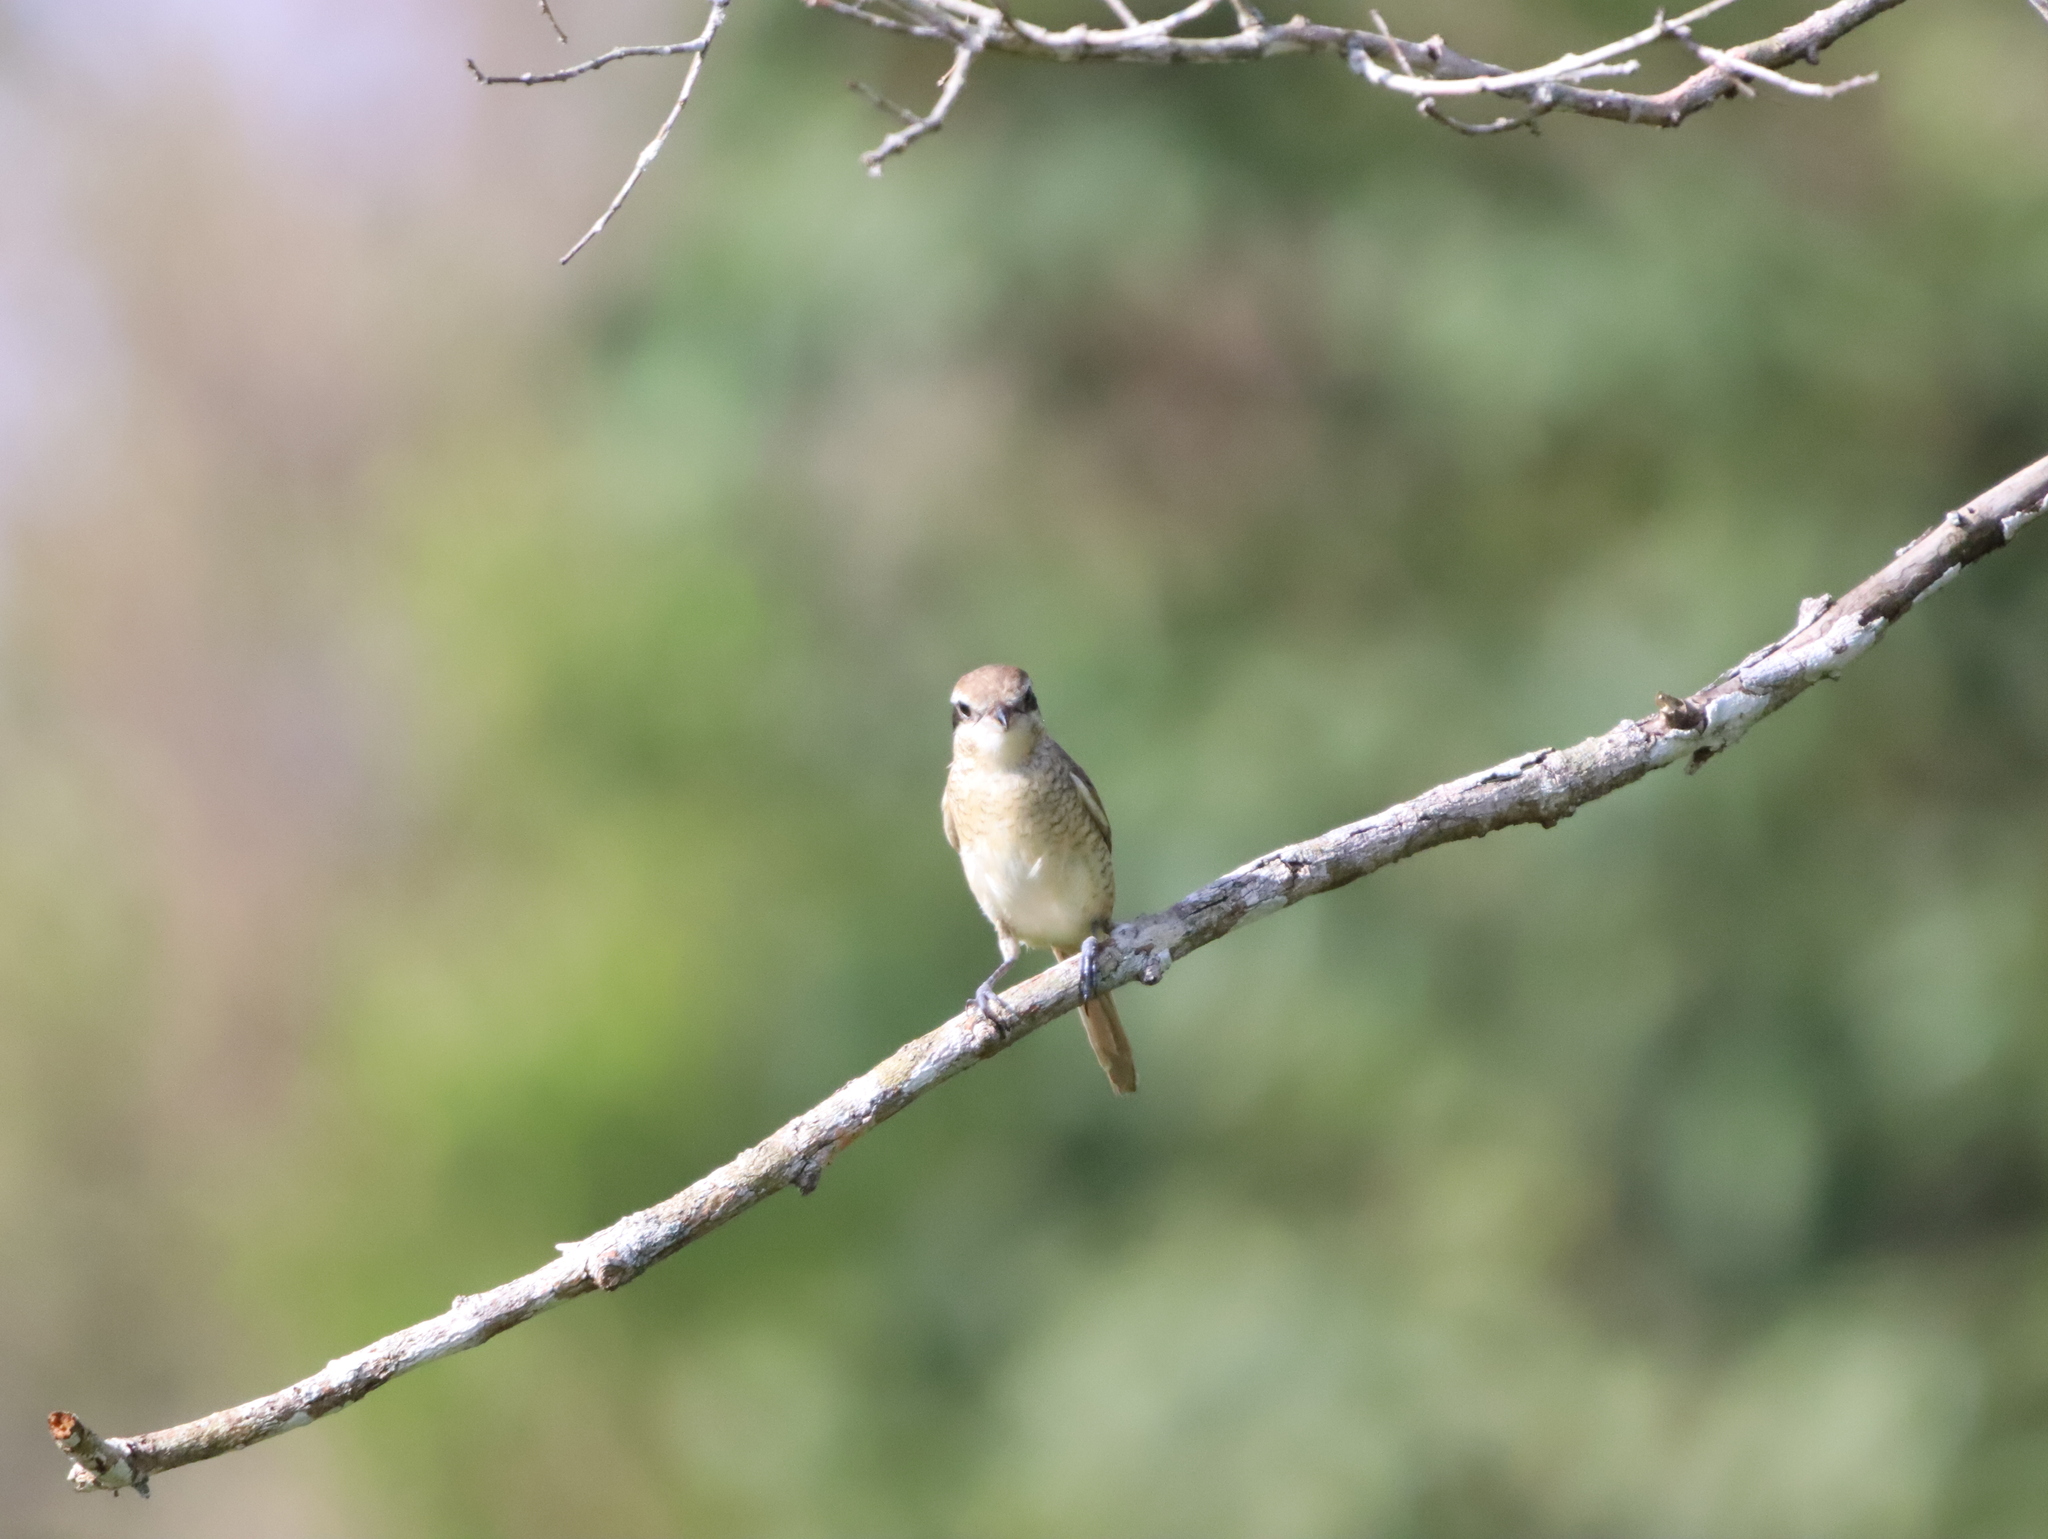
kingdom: Animalia
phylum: Chordata
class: Aves
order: Passeriformes
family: Laniidae
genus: Lanius
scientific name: Lanius cristatus
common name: Brown shrike
